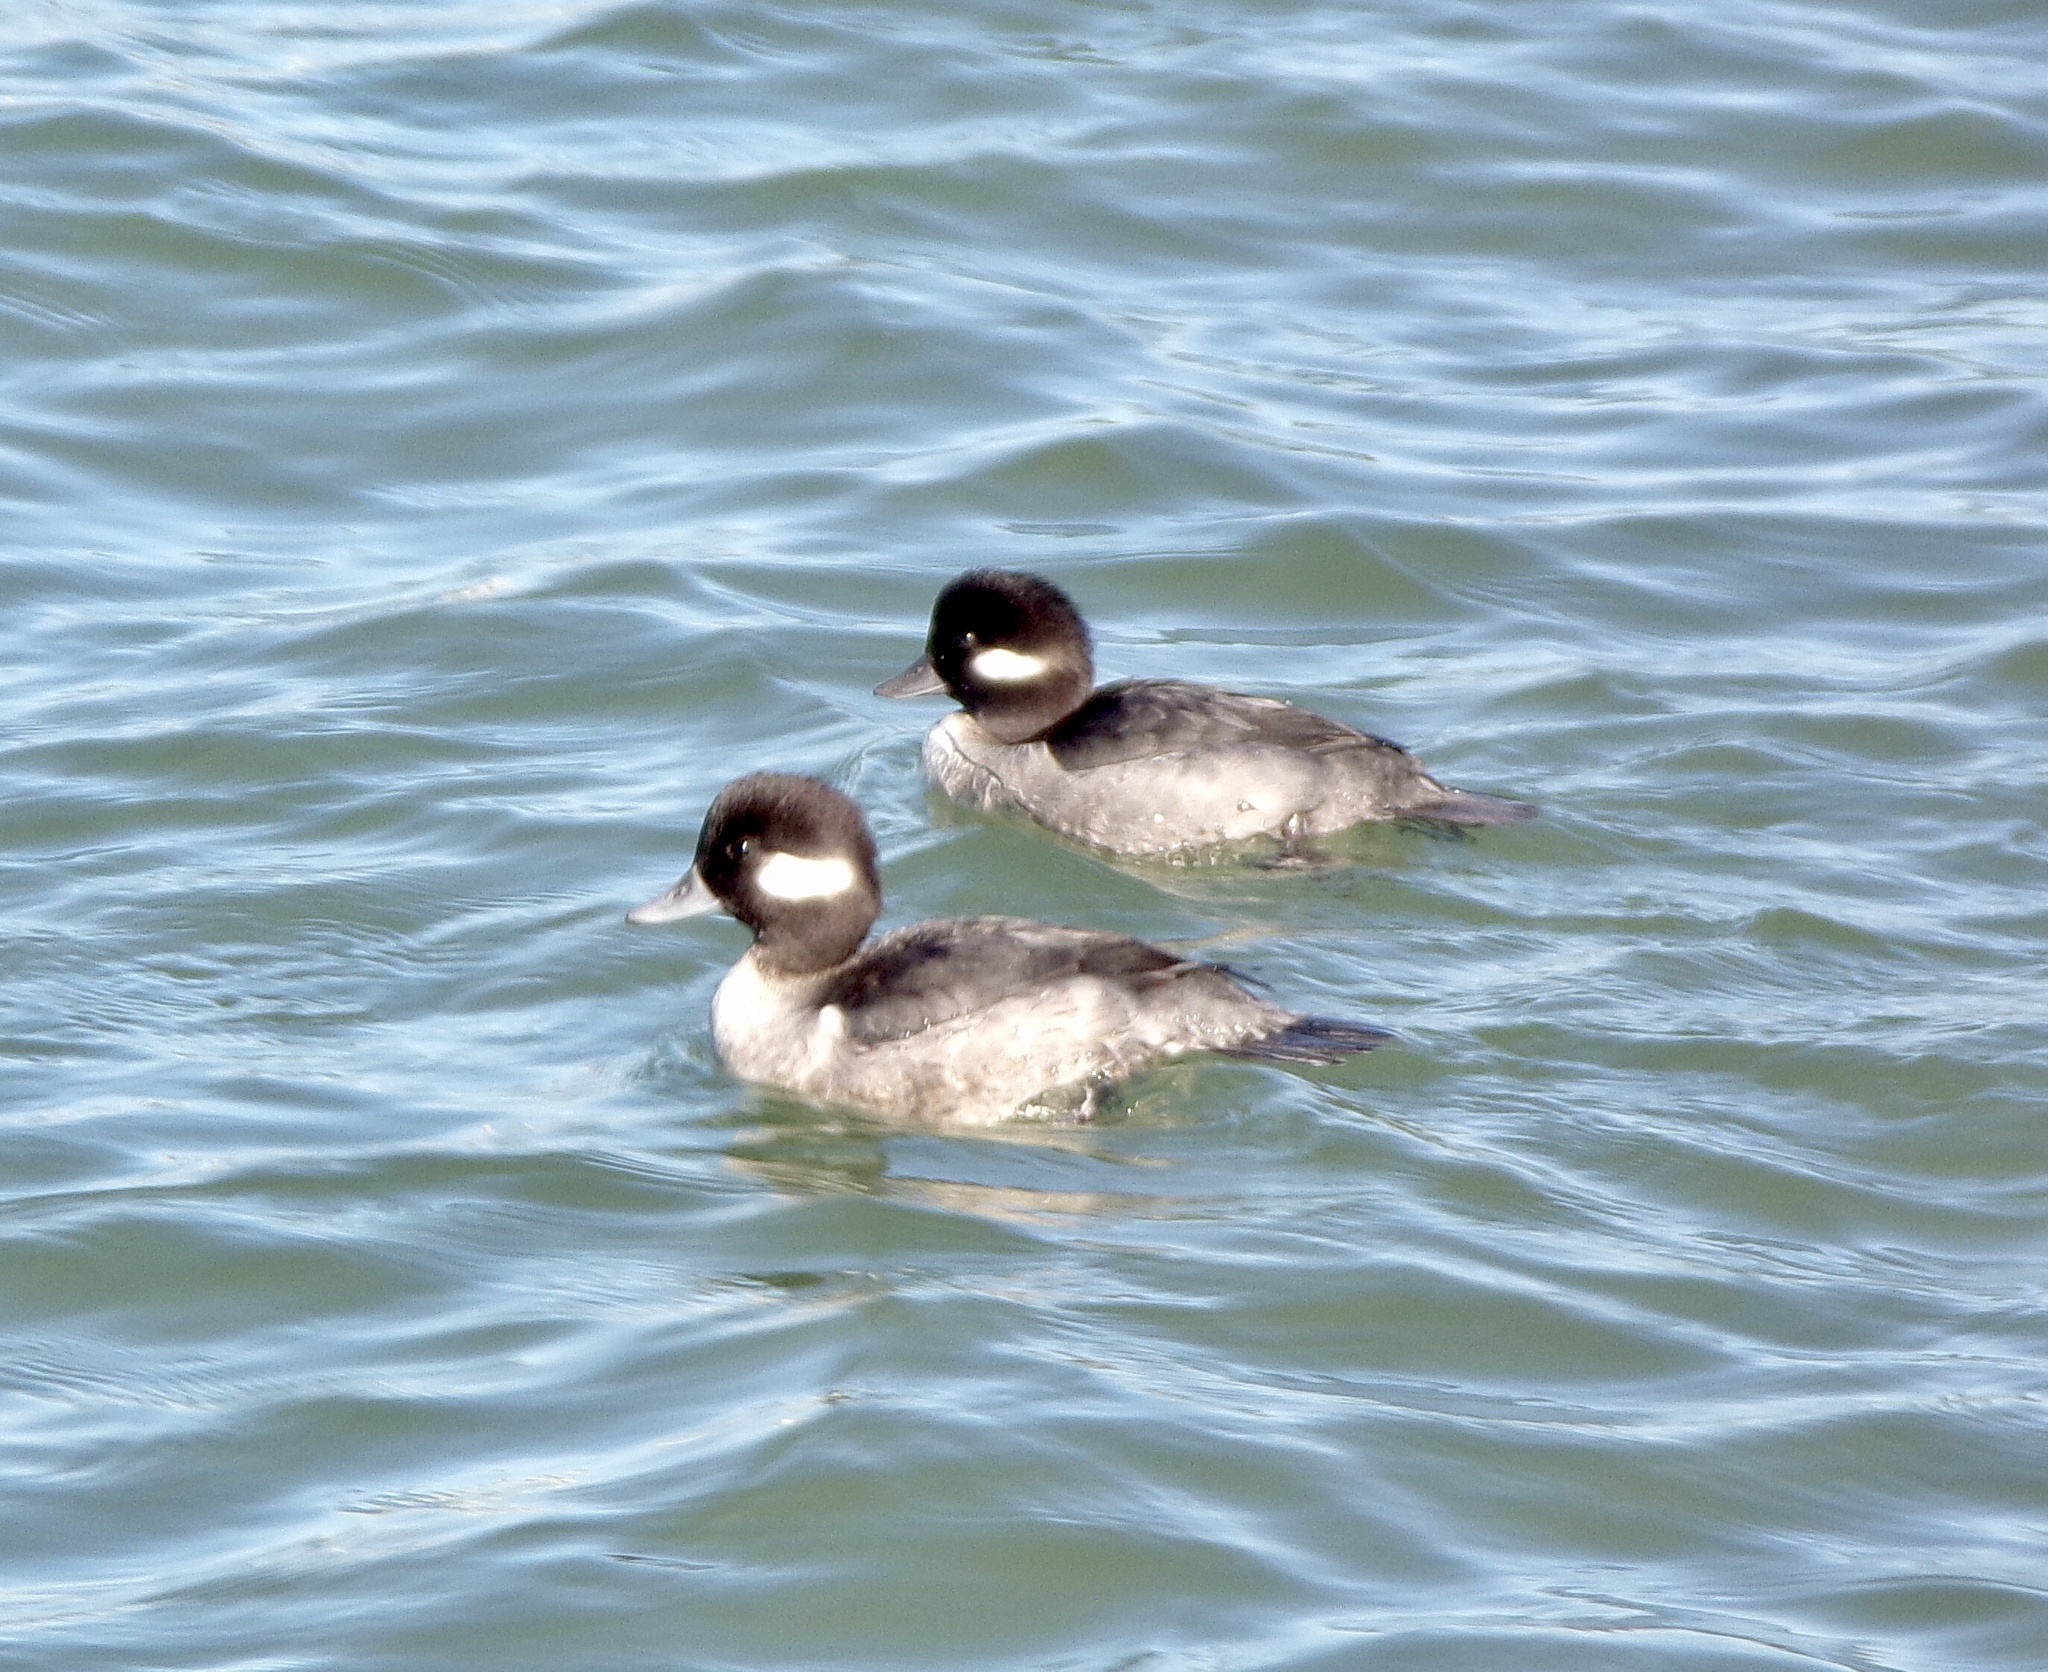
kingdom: Animalia
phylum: Chordata
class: Aves
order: Anseriformes
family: Anatidae
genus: Bucephala
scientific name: Bucephala albeola
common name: Bufflehead
